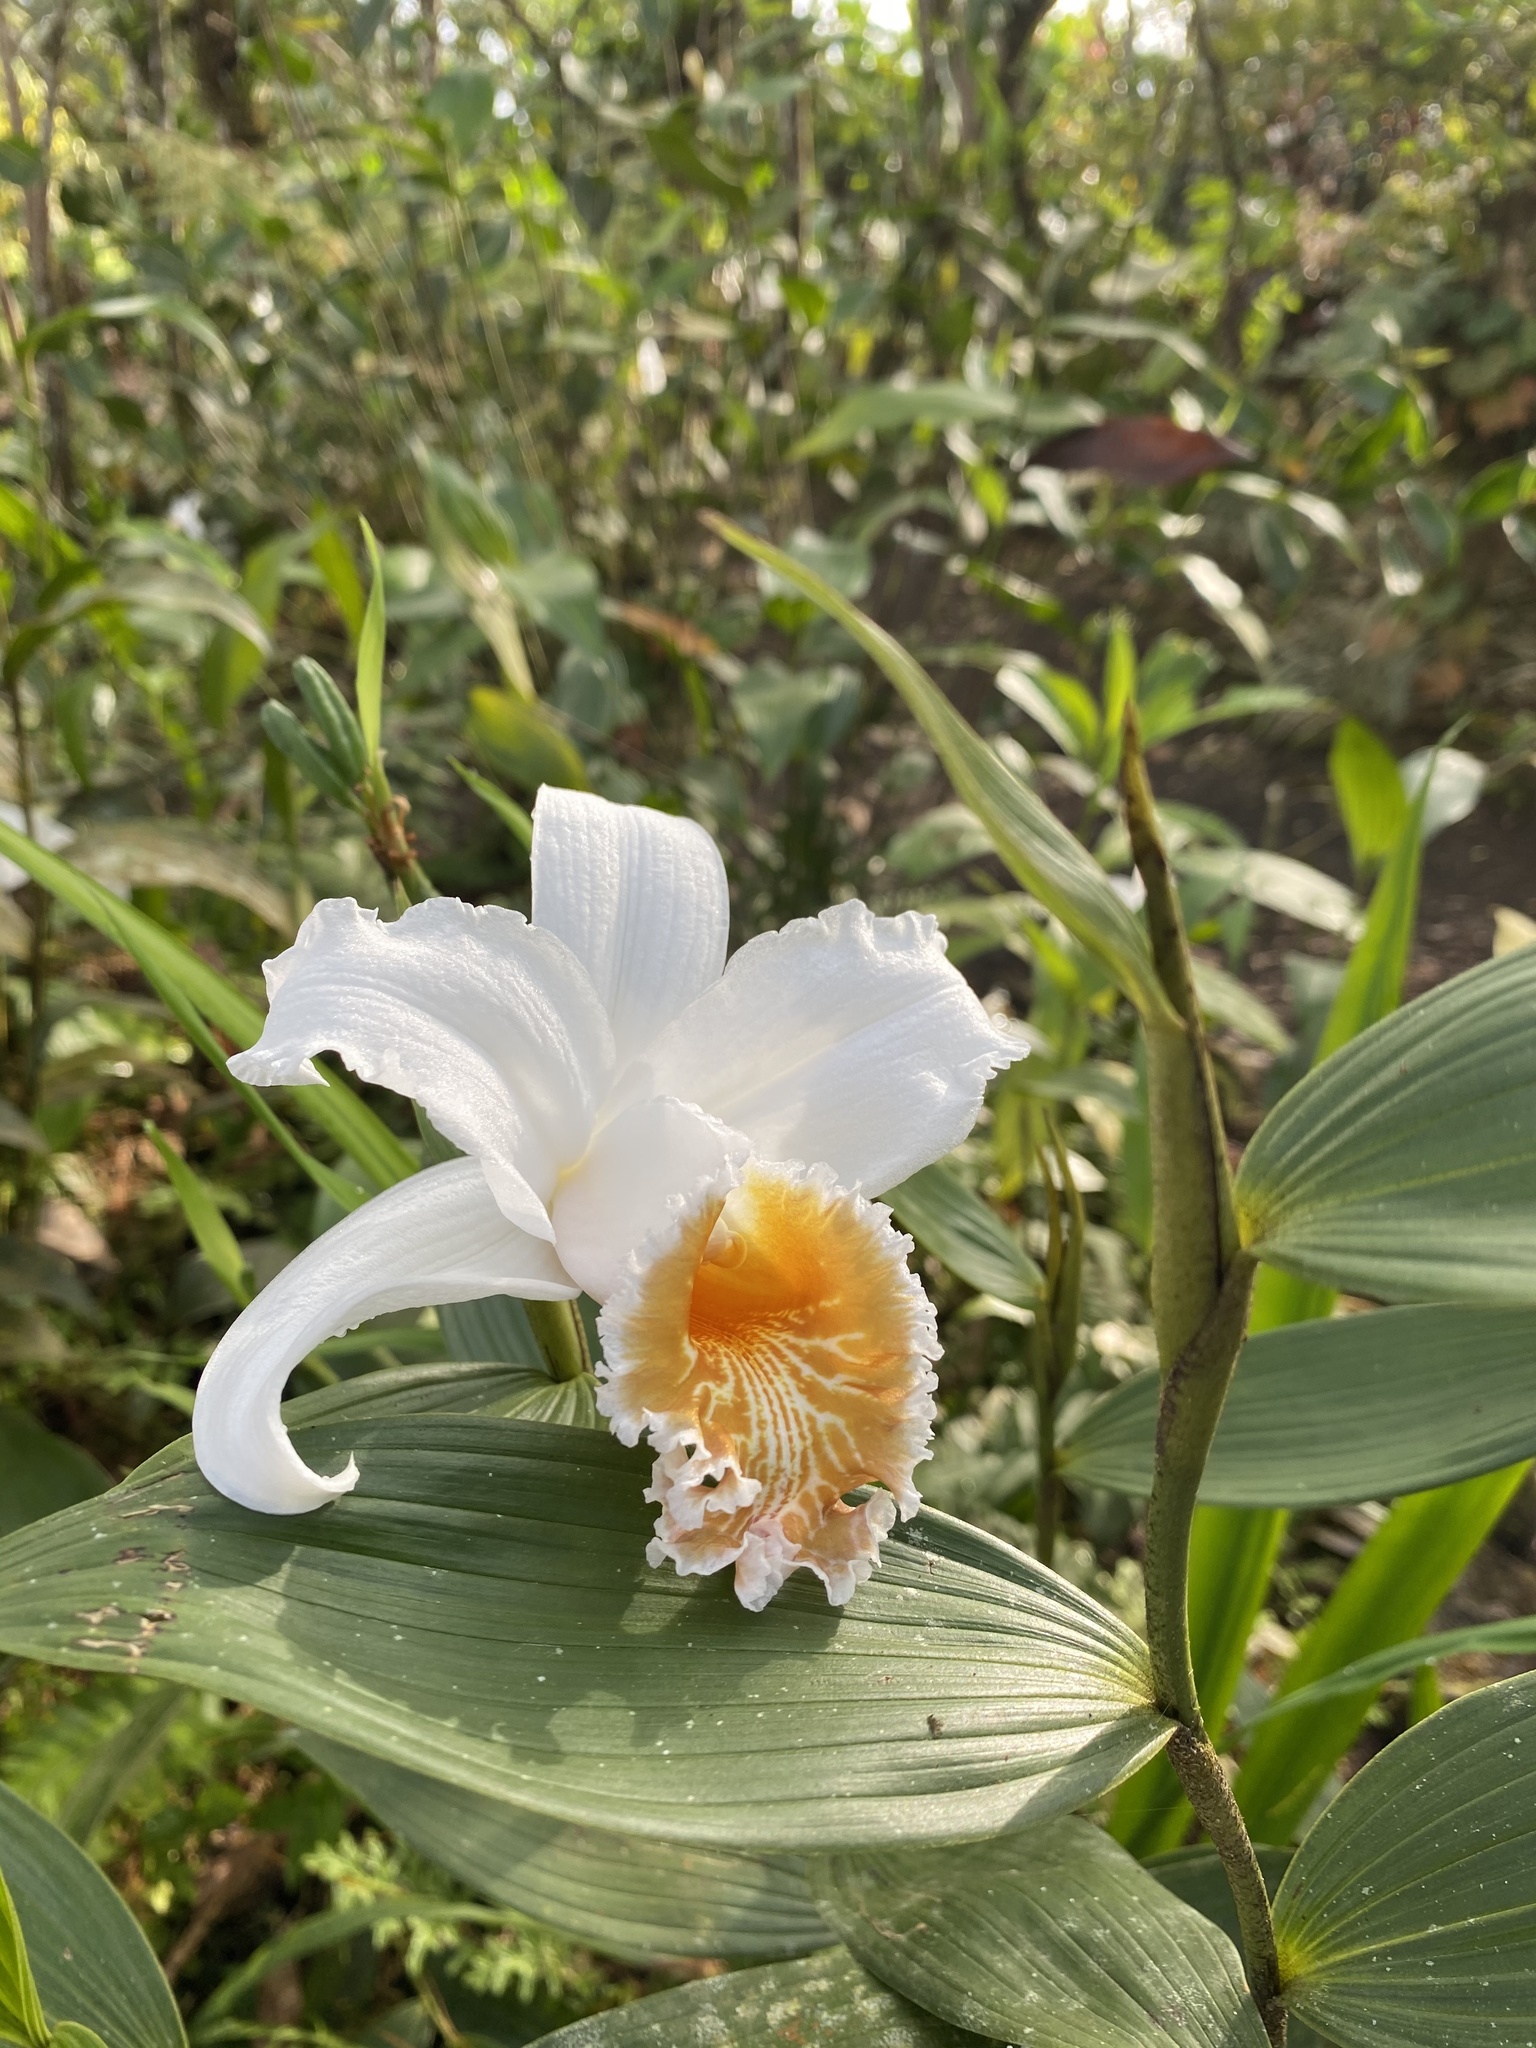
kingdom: Plantae
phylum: Tracheophyta
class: Liliopsida
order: Asparagales
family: Orchidaceae
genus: Sobralia
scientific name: Sobralia chrysostoma
